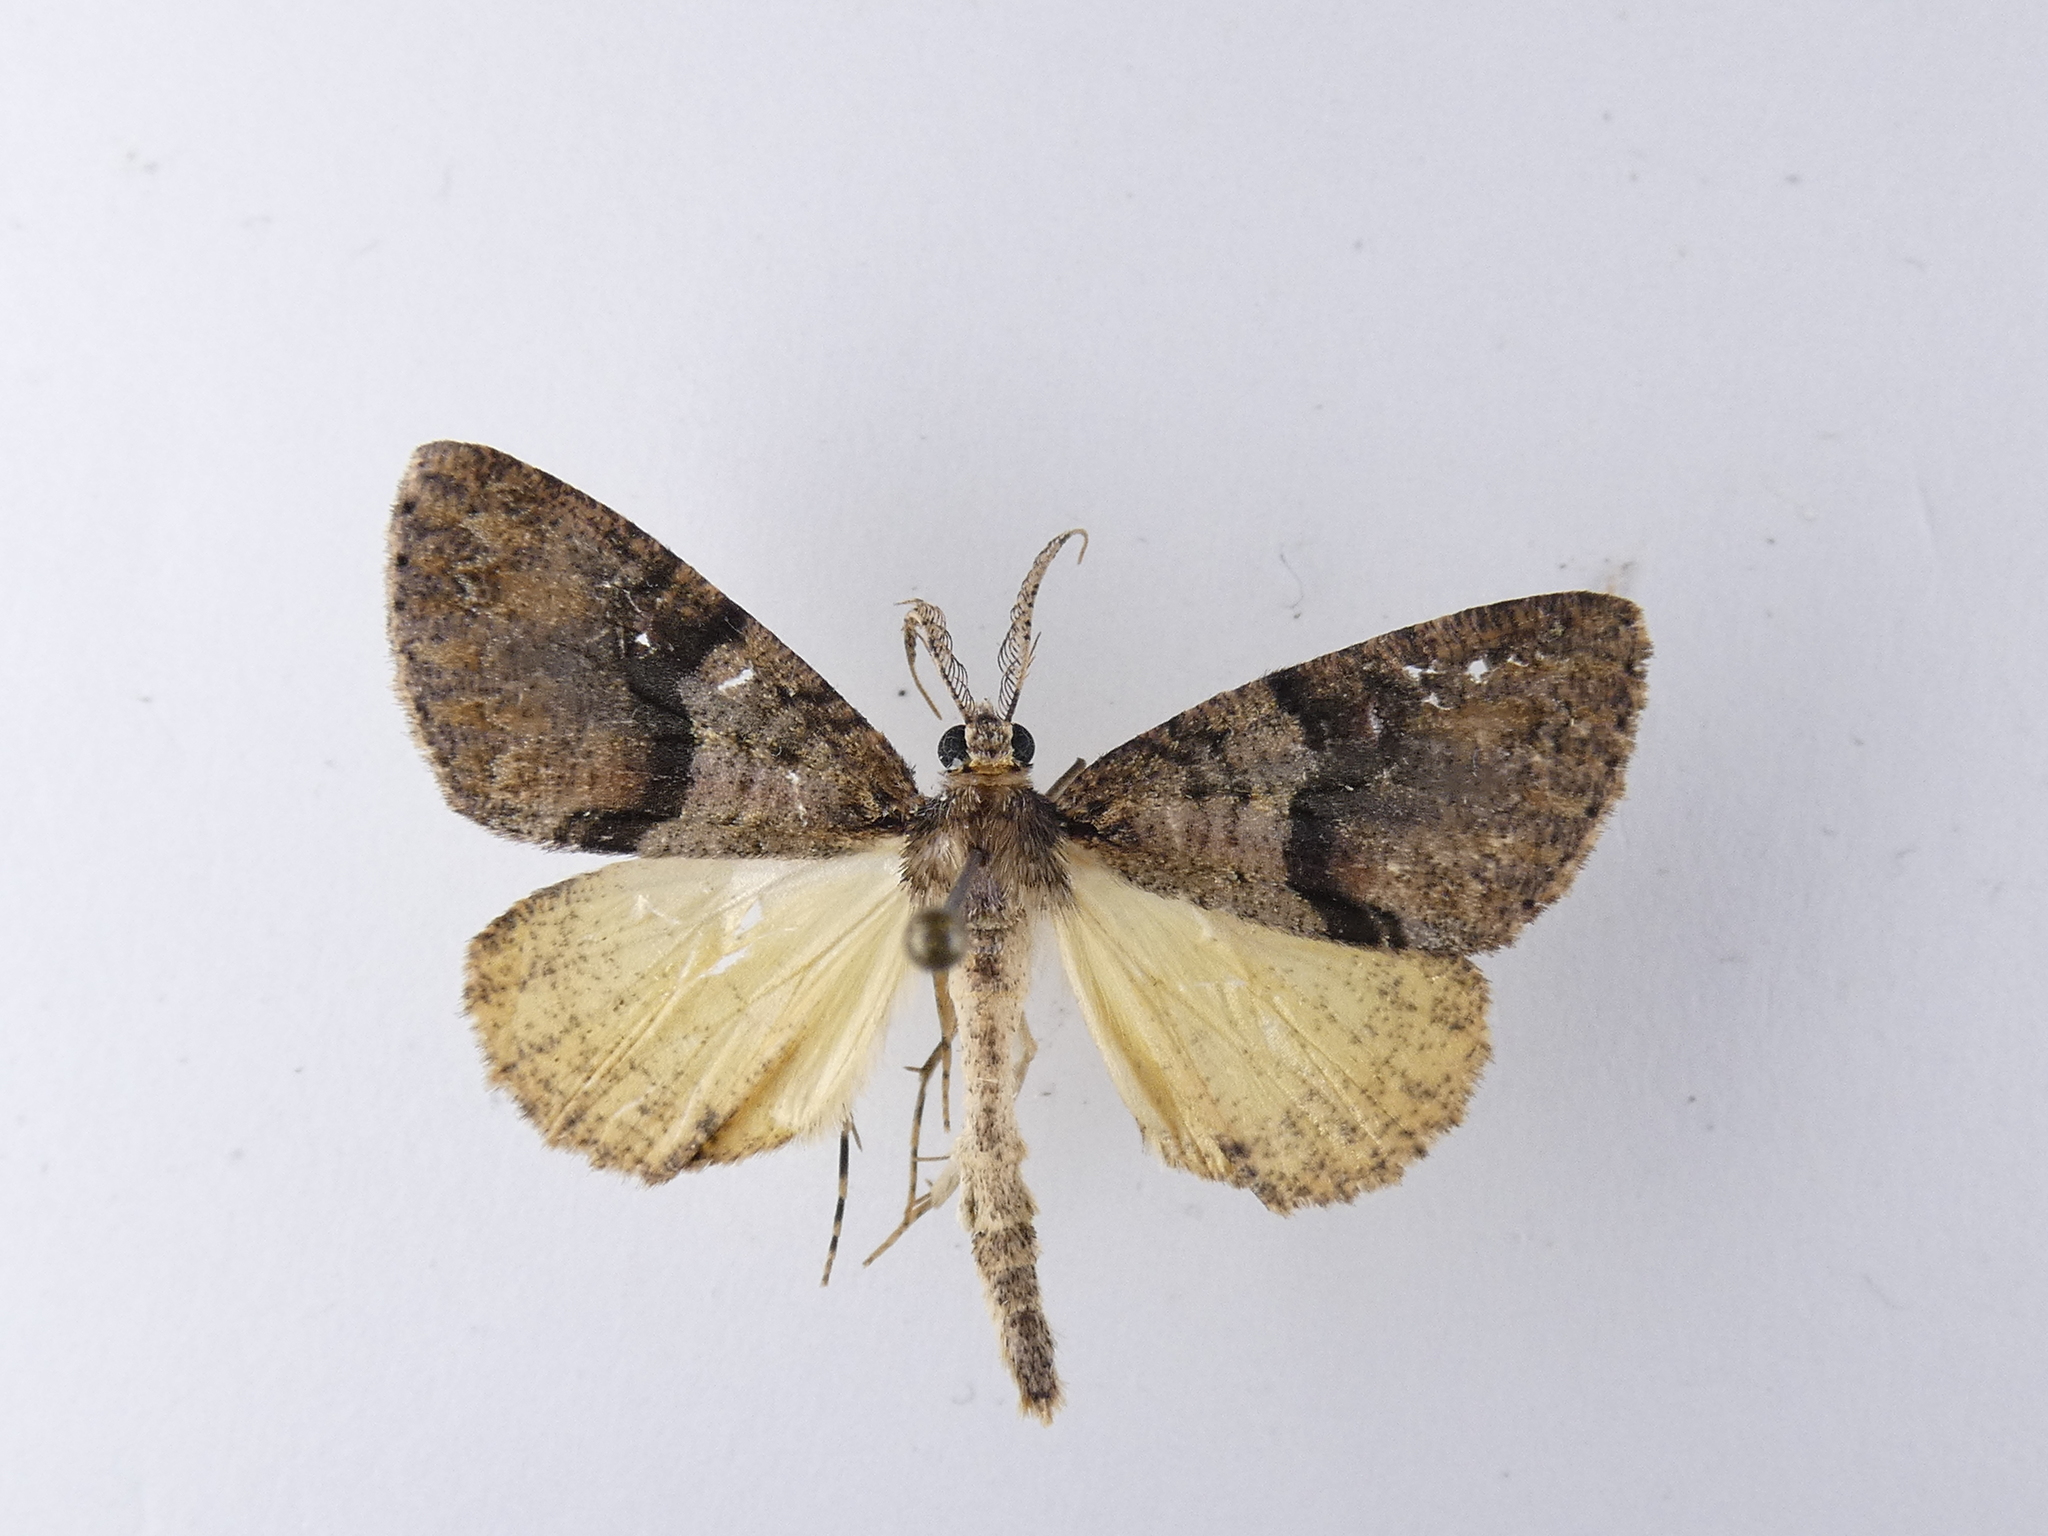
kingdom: Animalia
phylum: Arthropoda
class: Insecta
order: Lepidoptera
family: Geometridae
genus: Pseudocoremia
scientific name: Pseudocoremia suavis
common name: Common forest looper
